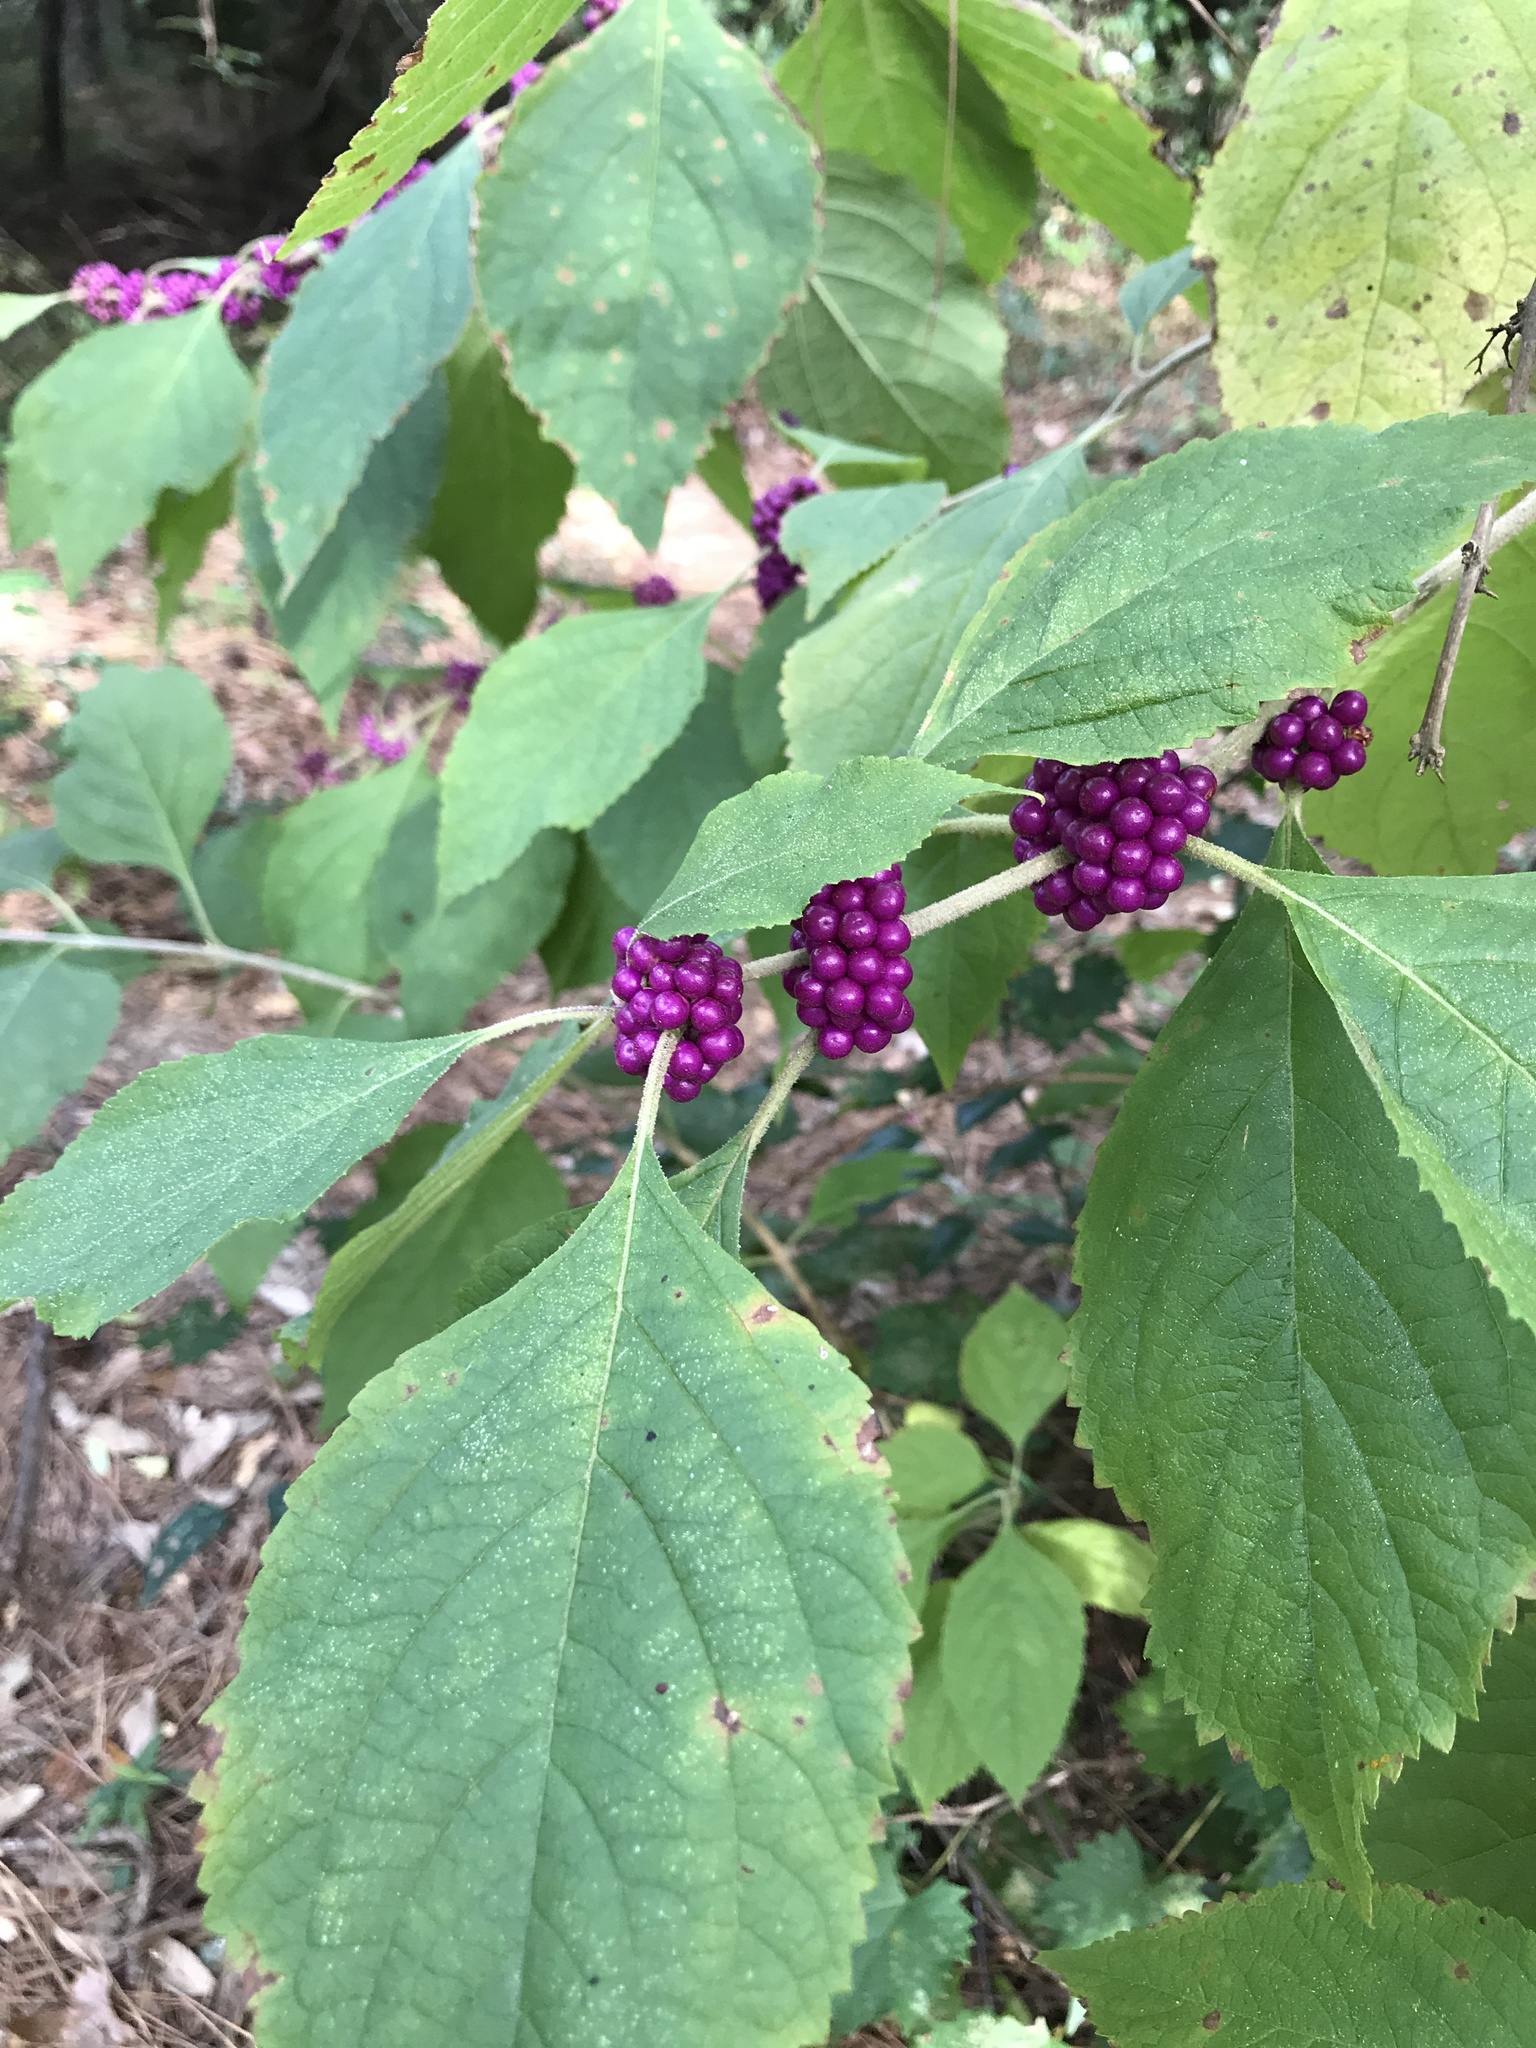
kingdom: Plantae
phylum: Tracheophyta
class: Magnoliopsida
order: Lamiales
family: Lamiaceae
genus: Callicarpa
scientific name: Callicarpa americana
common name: American beautyberry
